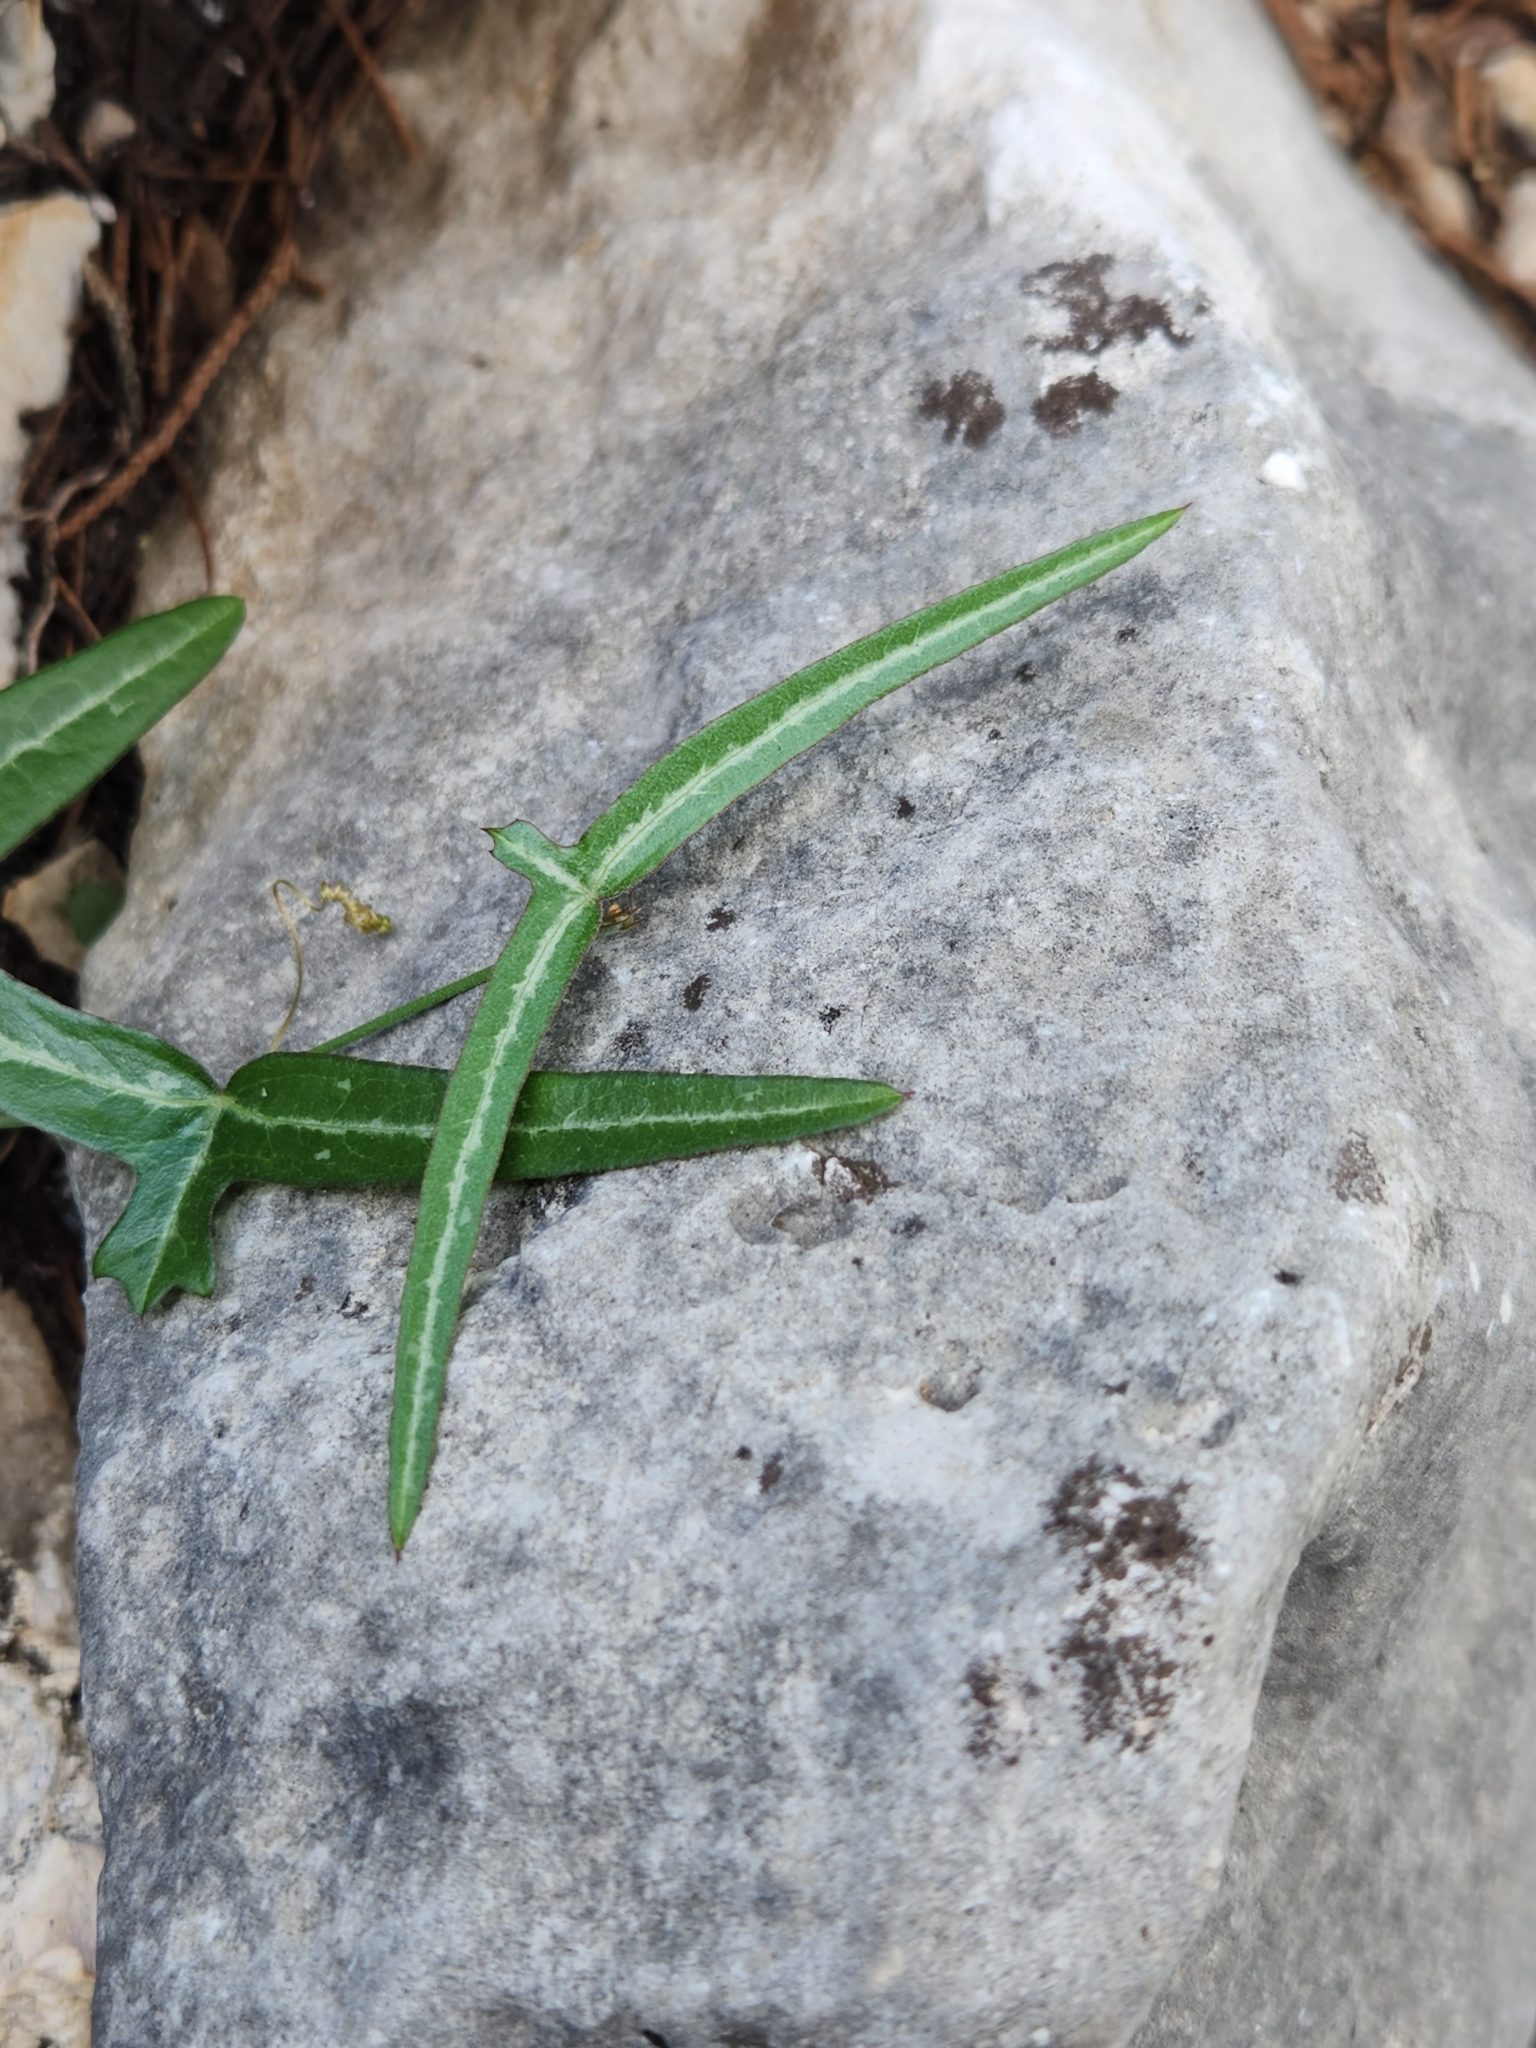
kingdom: Plantae
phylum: Tracheophyta
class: Magnoliopsida
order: Malpighiales
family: Passifloraceae
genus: Passiflora
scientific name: Passiflora tenuiloba
